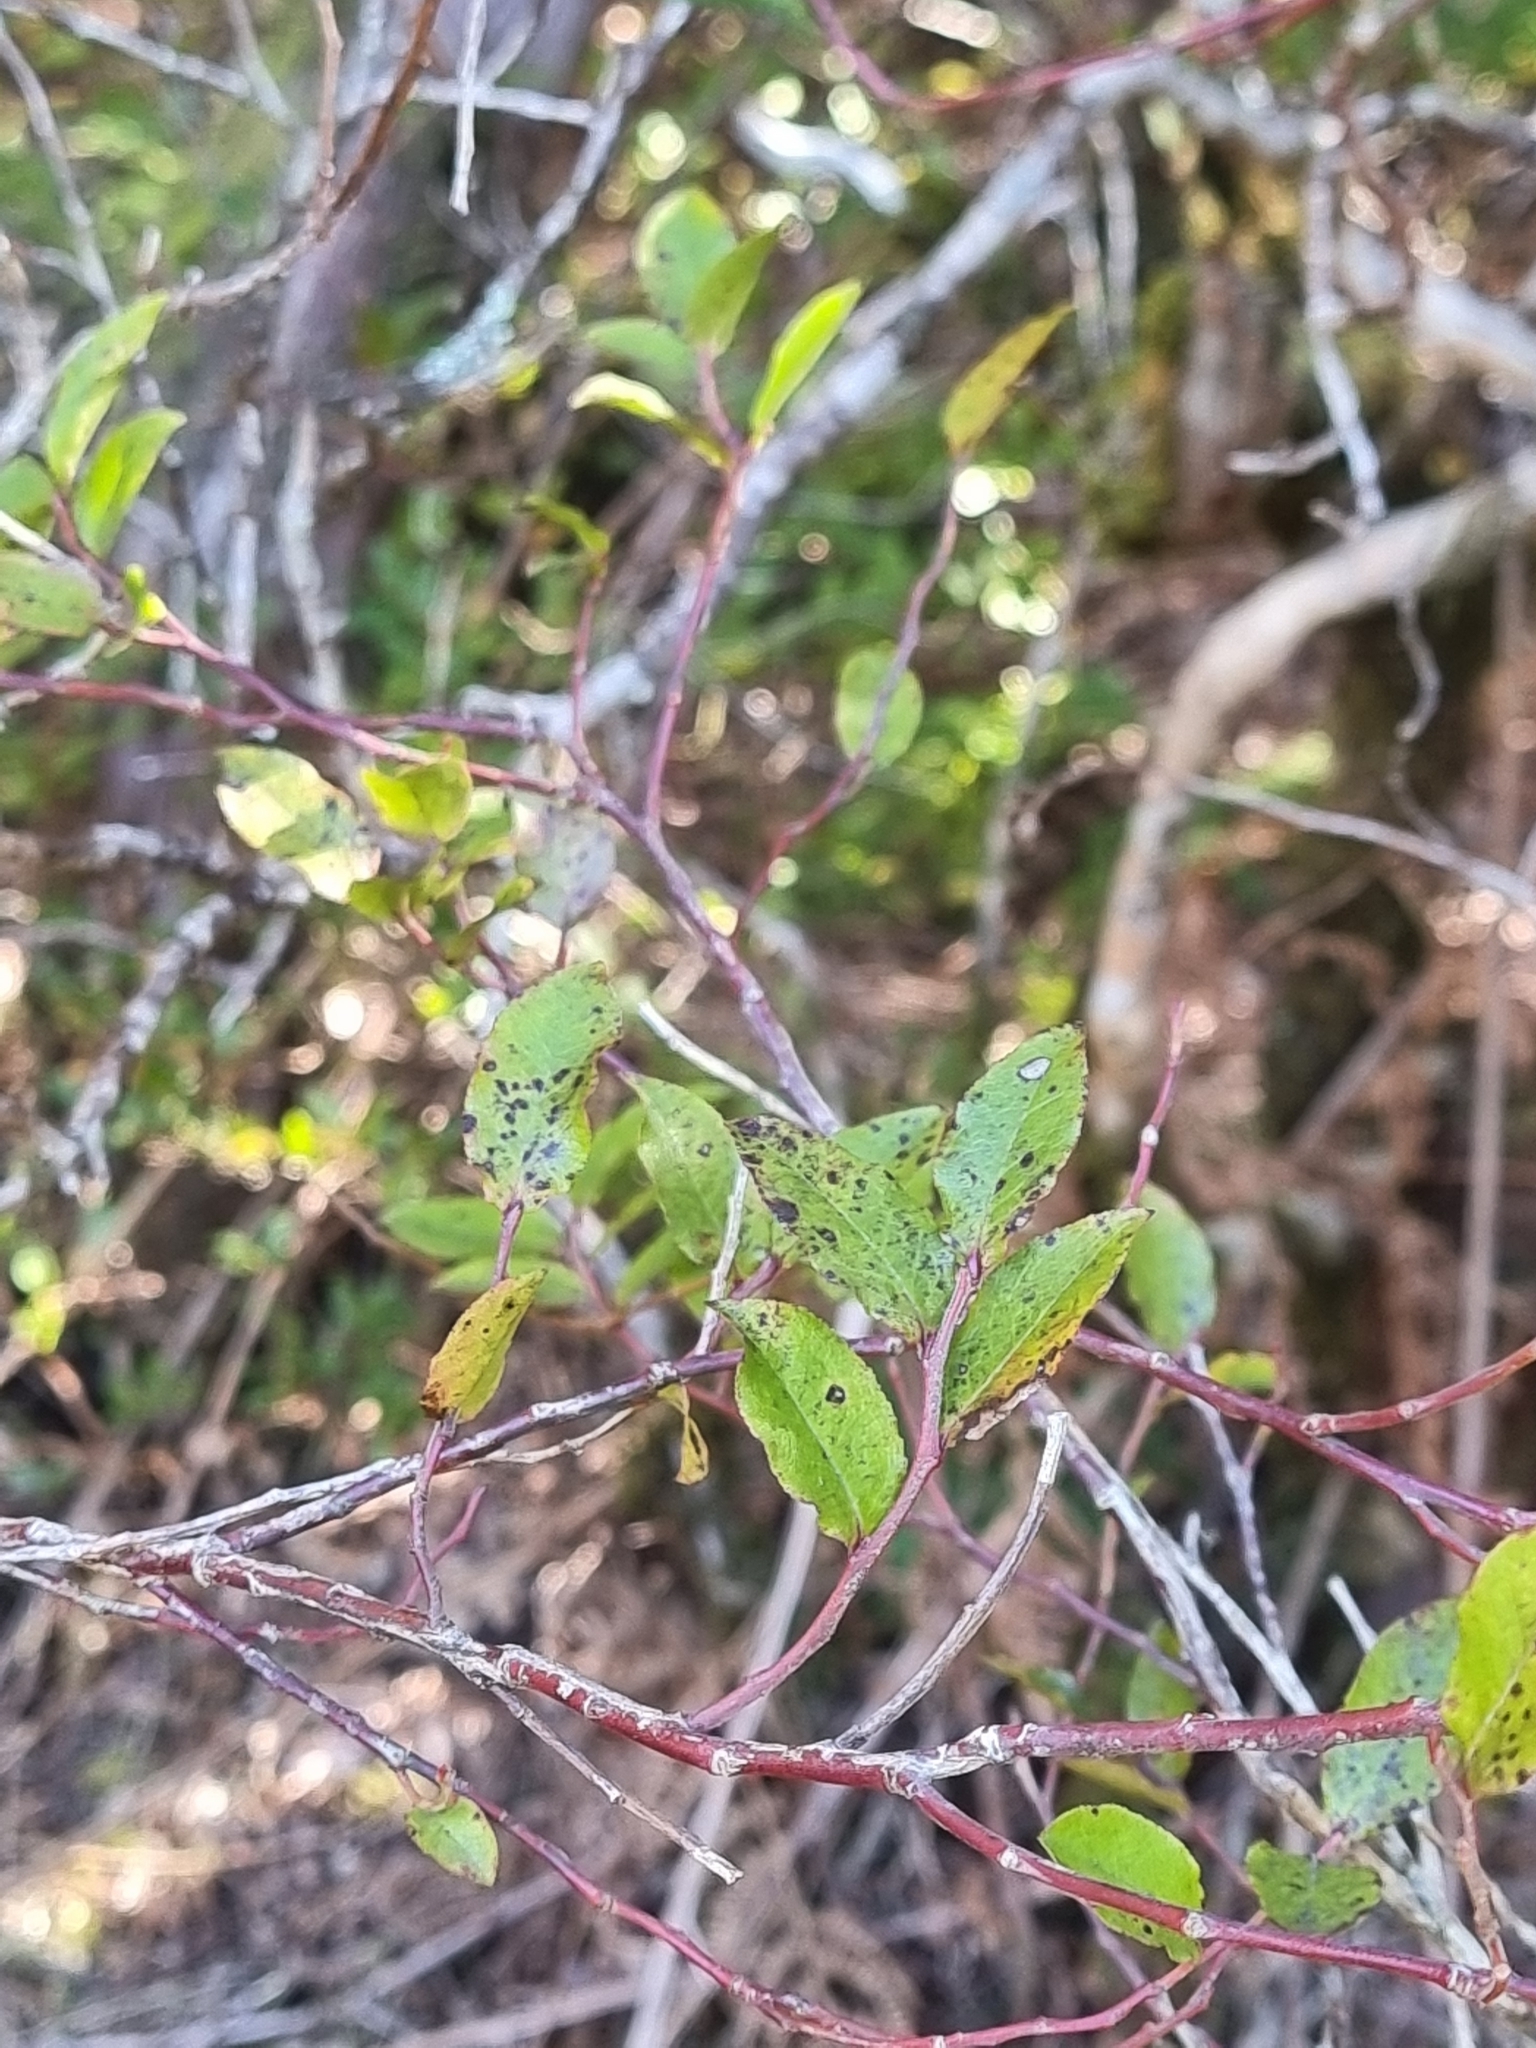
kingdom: Plantae
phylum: Tracheophyta
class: Magnoliopsida
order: Ericales
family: Ericaceae
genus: Vaccinium
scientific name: Vaccinium padifolium
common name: Madeiran blueberry
